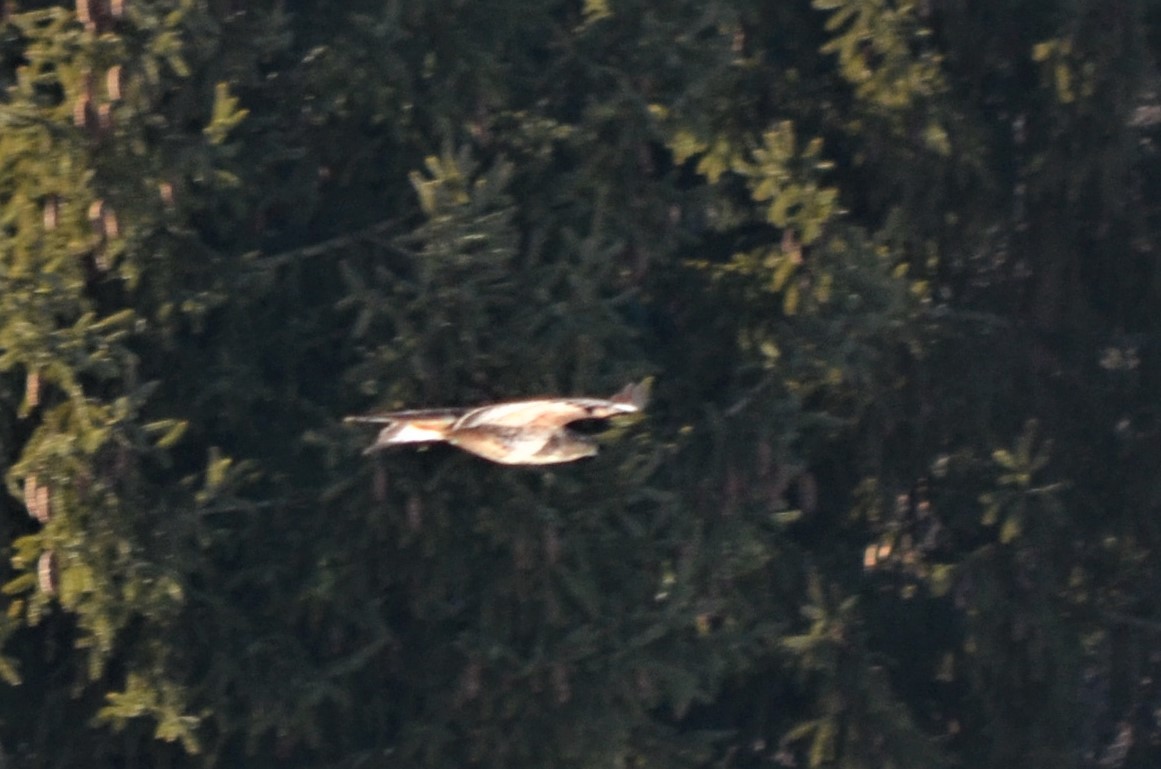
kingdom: Animalia
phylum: Chordata
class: Aves
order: Accipitriformes
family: Accipitridae
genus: Buteo
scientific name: Buteo buteo
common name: Common buzzard
